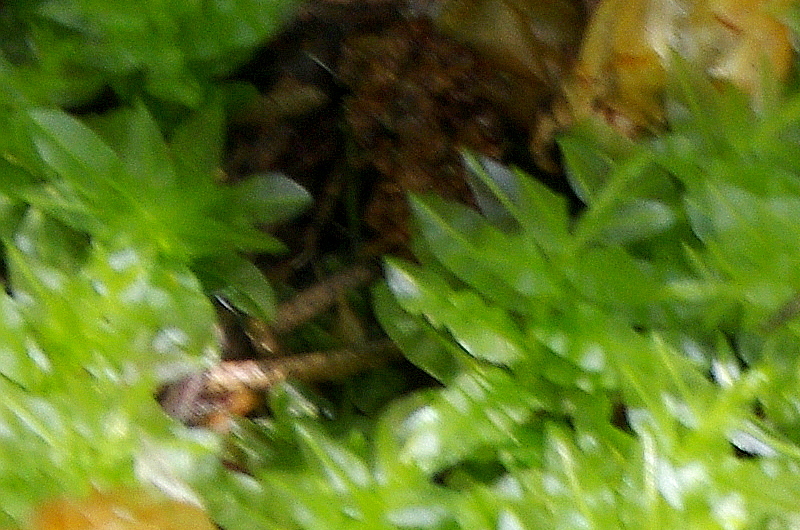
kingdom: Plantae
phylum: Bryophyta
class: Bryopsida
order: Bryales
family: Mniaceae
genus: Plagiomnium
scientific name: Plagiomnium undulatum
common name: Hart's-tongue thyme-moss
